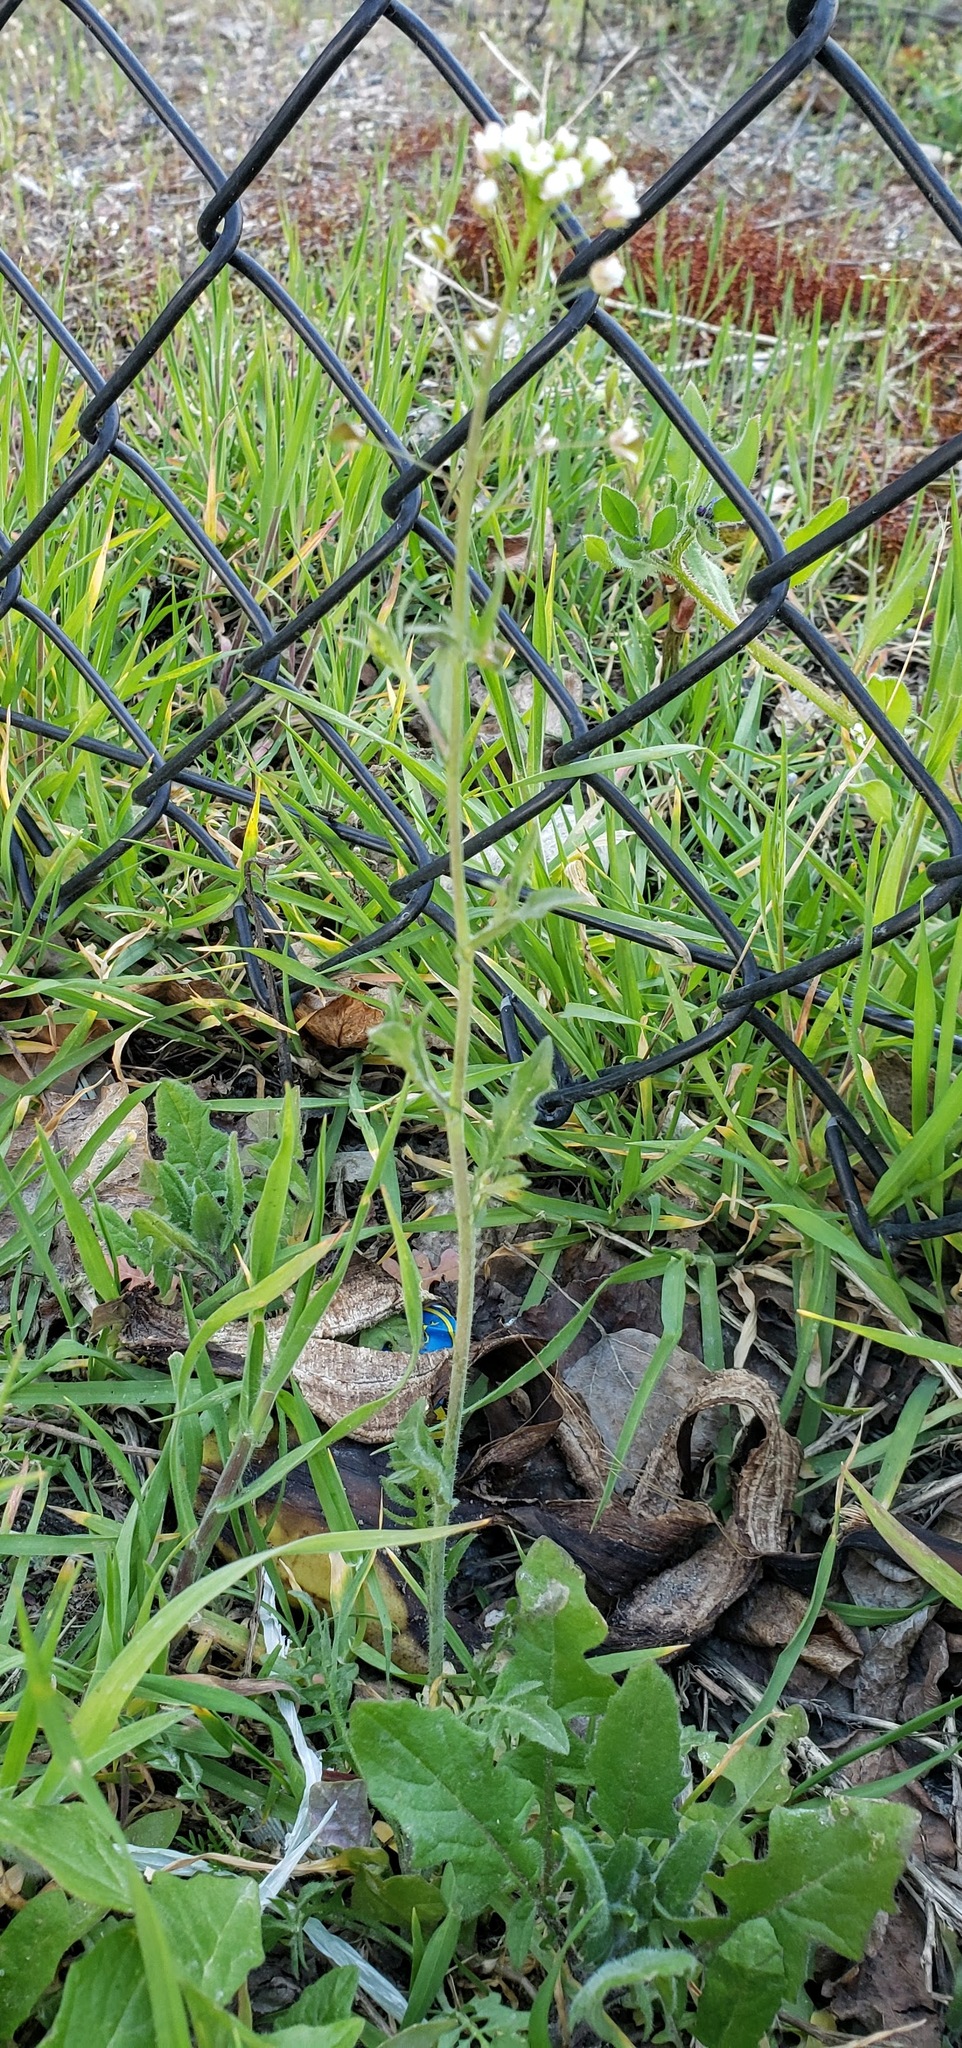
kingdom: Plantae
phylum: Tracheophyta
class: Magnoliopsida
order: Brassicales
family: Brassicaceae
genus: Capsella
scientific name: Capsella bursa-pastoris
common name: Shepherd's purse
